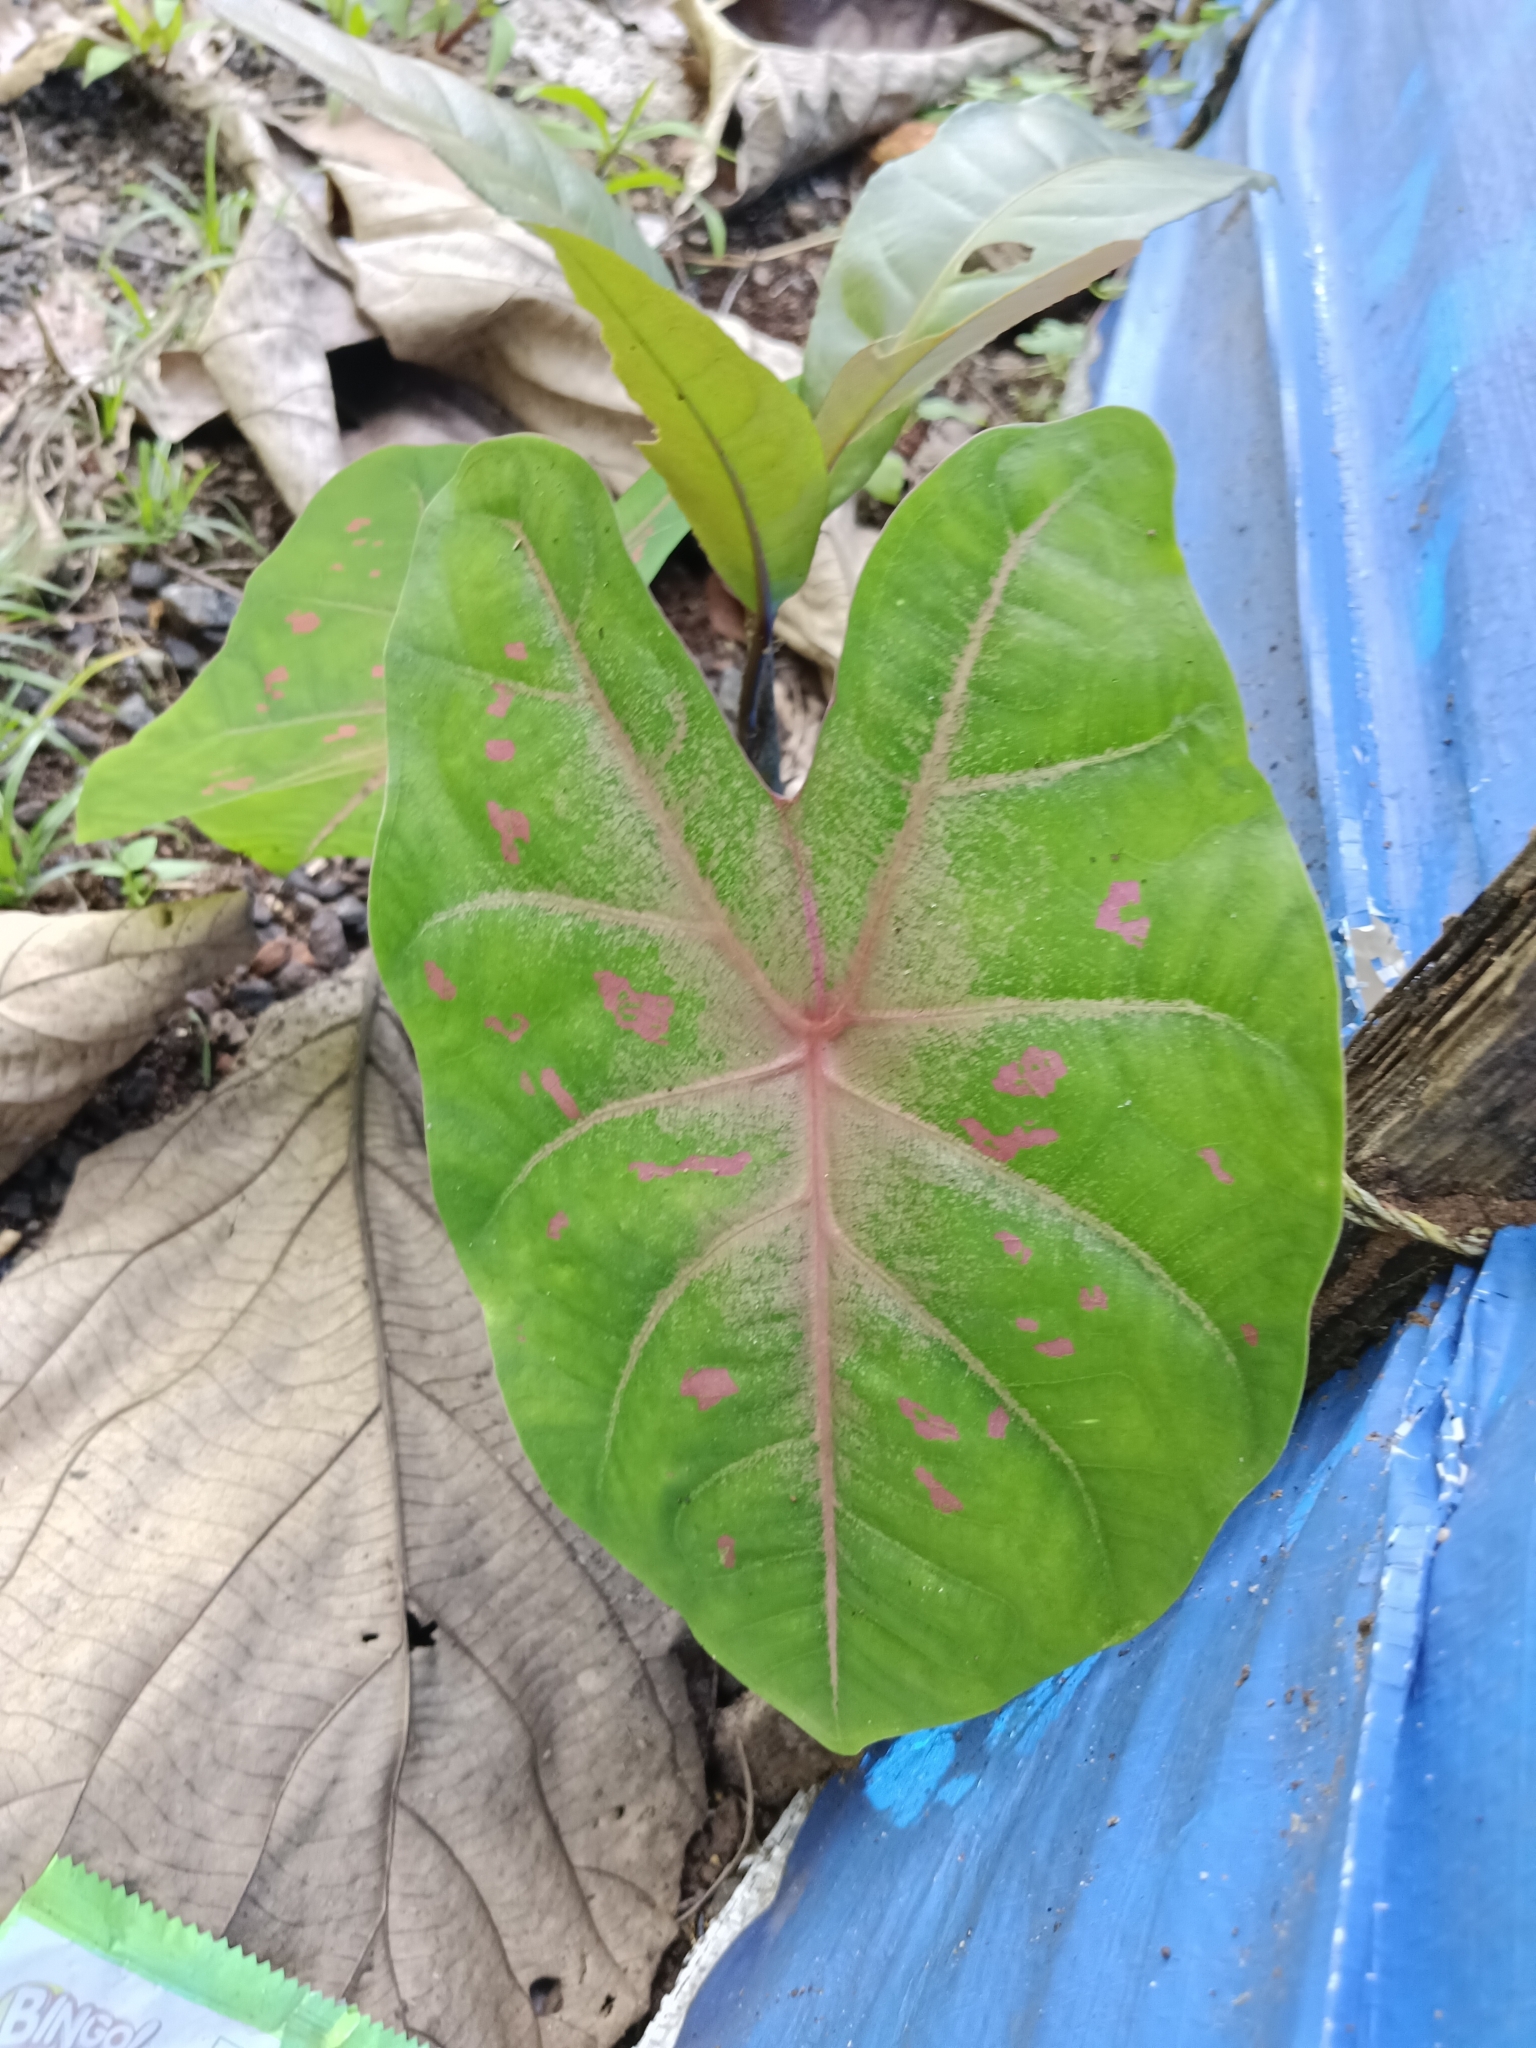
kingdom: Plantae
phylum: Tracheophyta
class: Liliopsida
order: Alismatales
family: Araceae
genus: Caladium
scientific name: Caladium bicolor
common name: Artist's pallet
